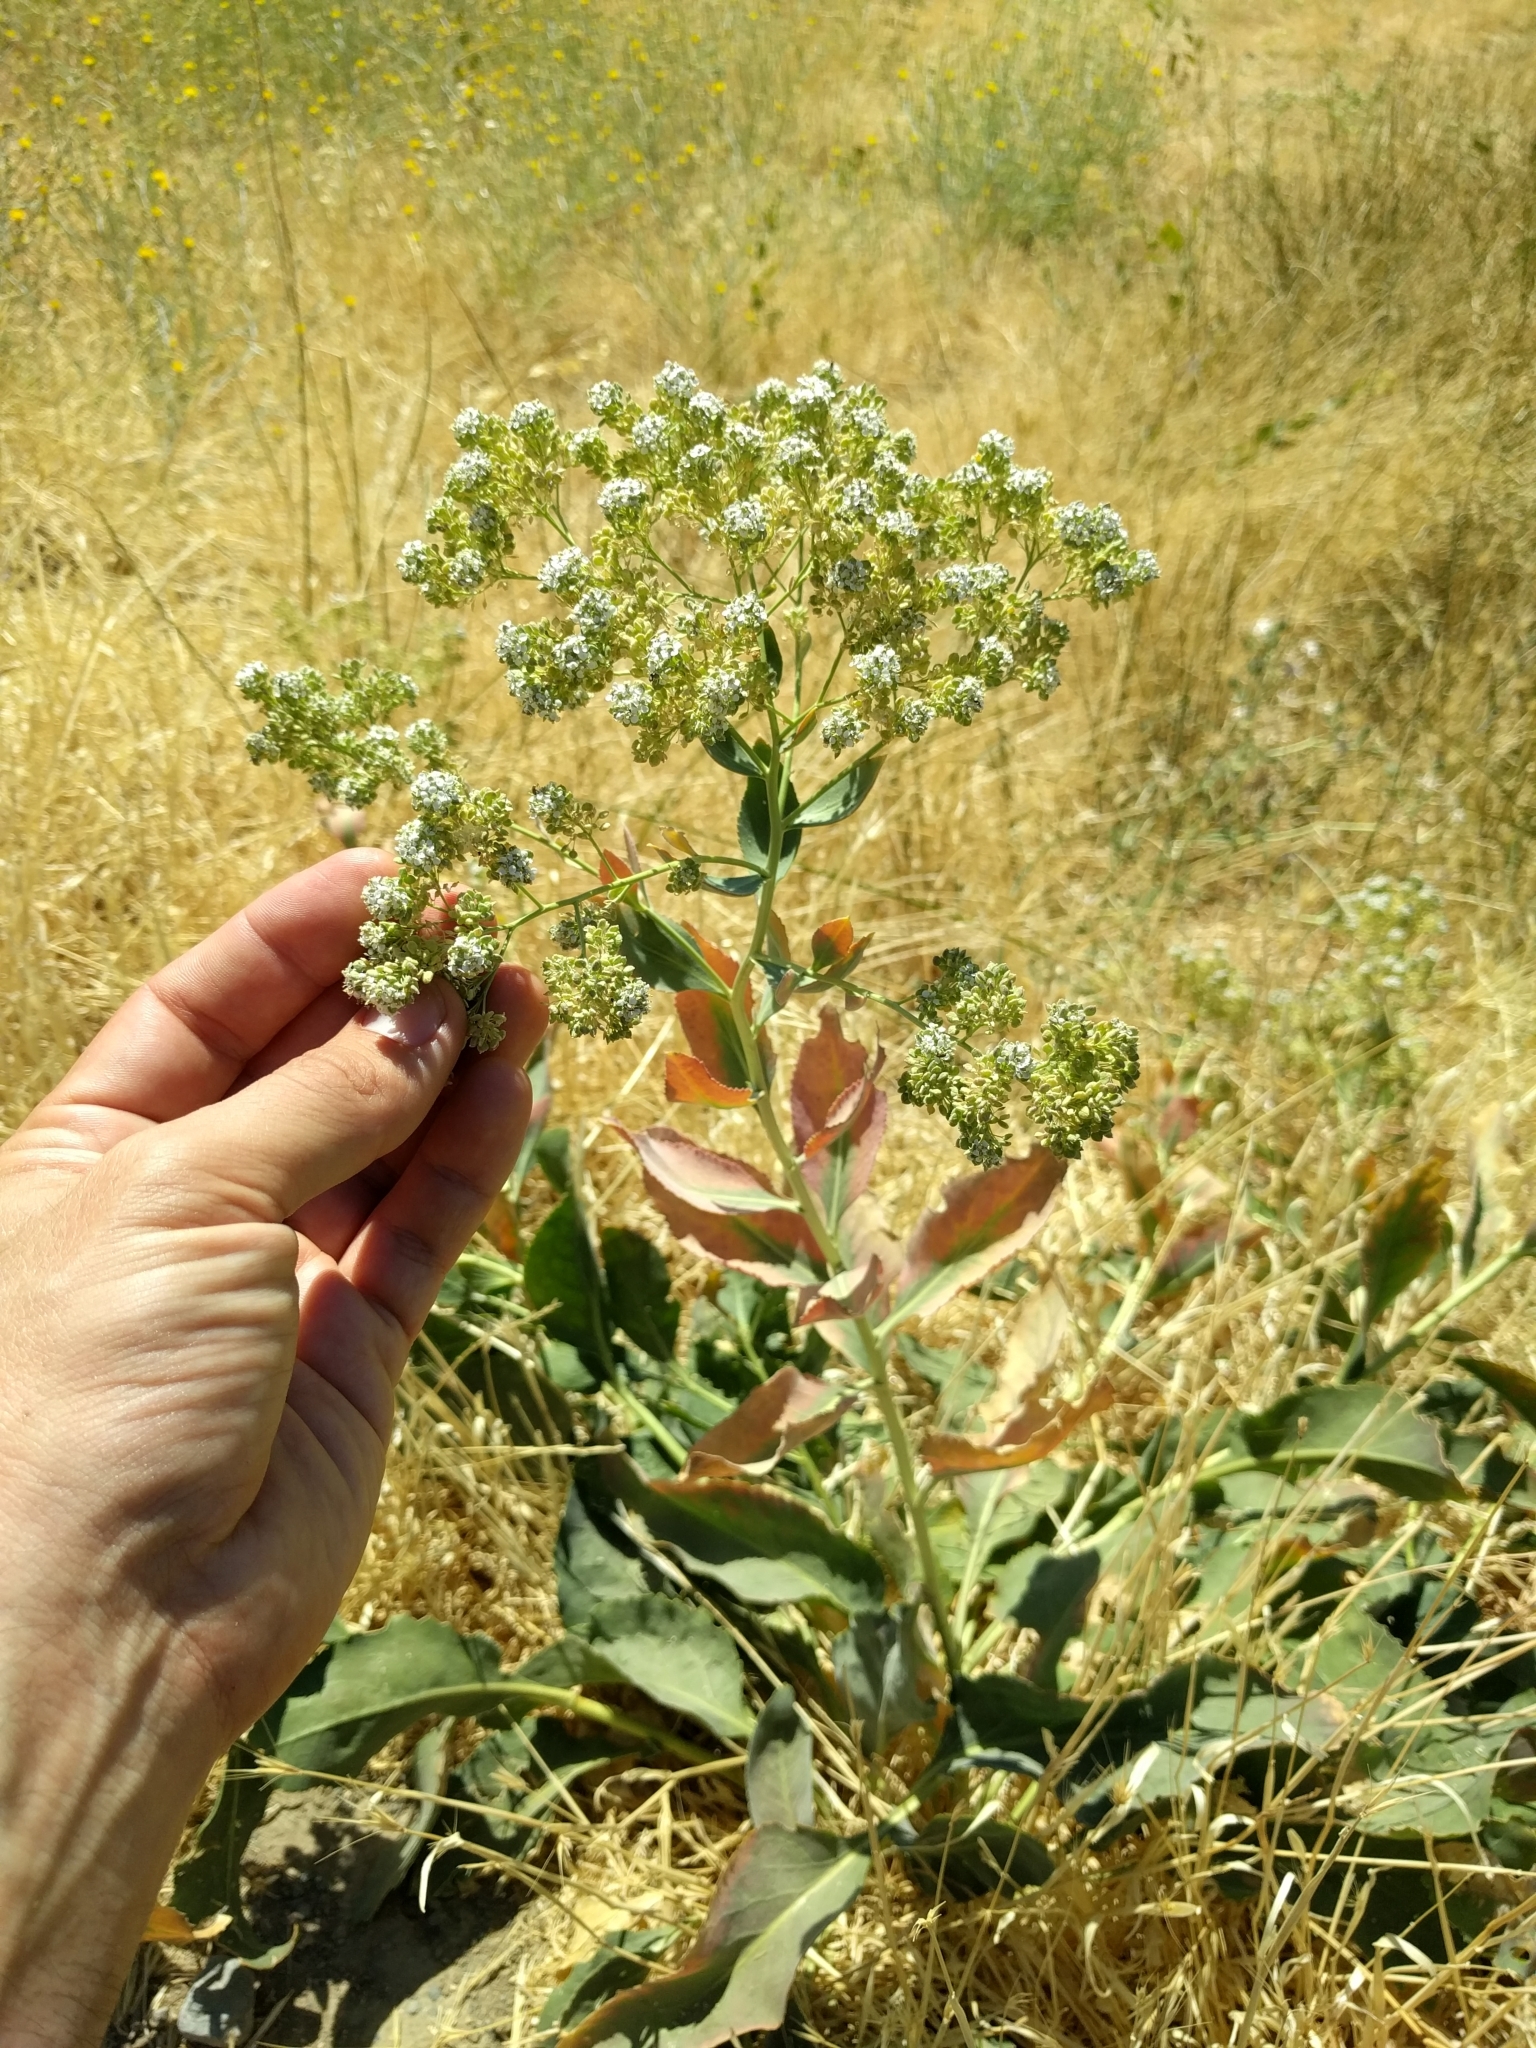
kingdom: Plantae
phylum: Tracheophyta
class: Magnoliopsida
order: Brassicales
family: Brassicaceae
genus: Lepidium
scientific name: Lepidium latifolium
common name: Dittander
